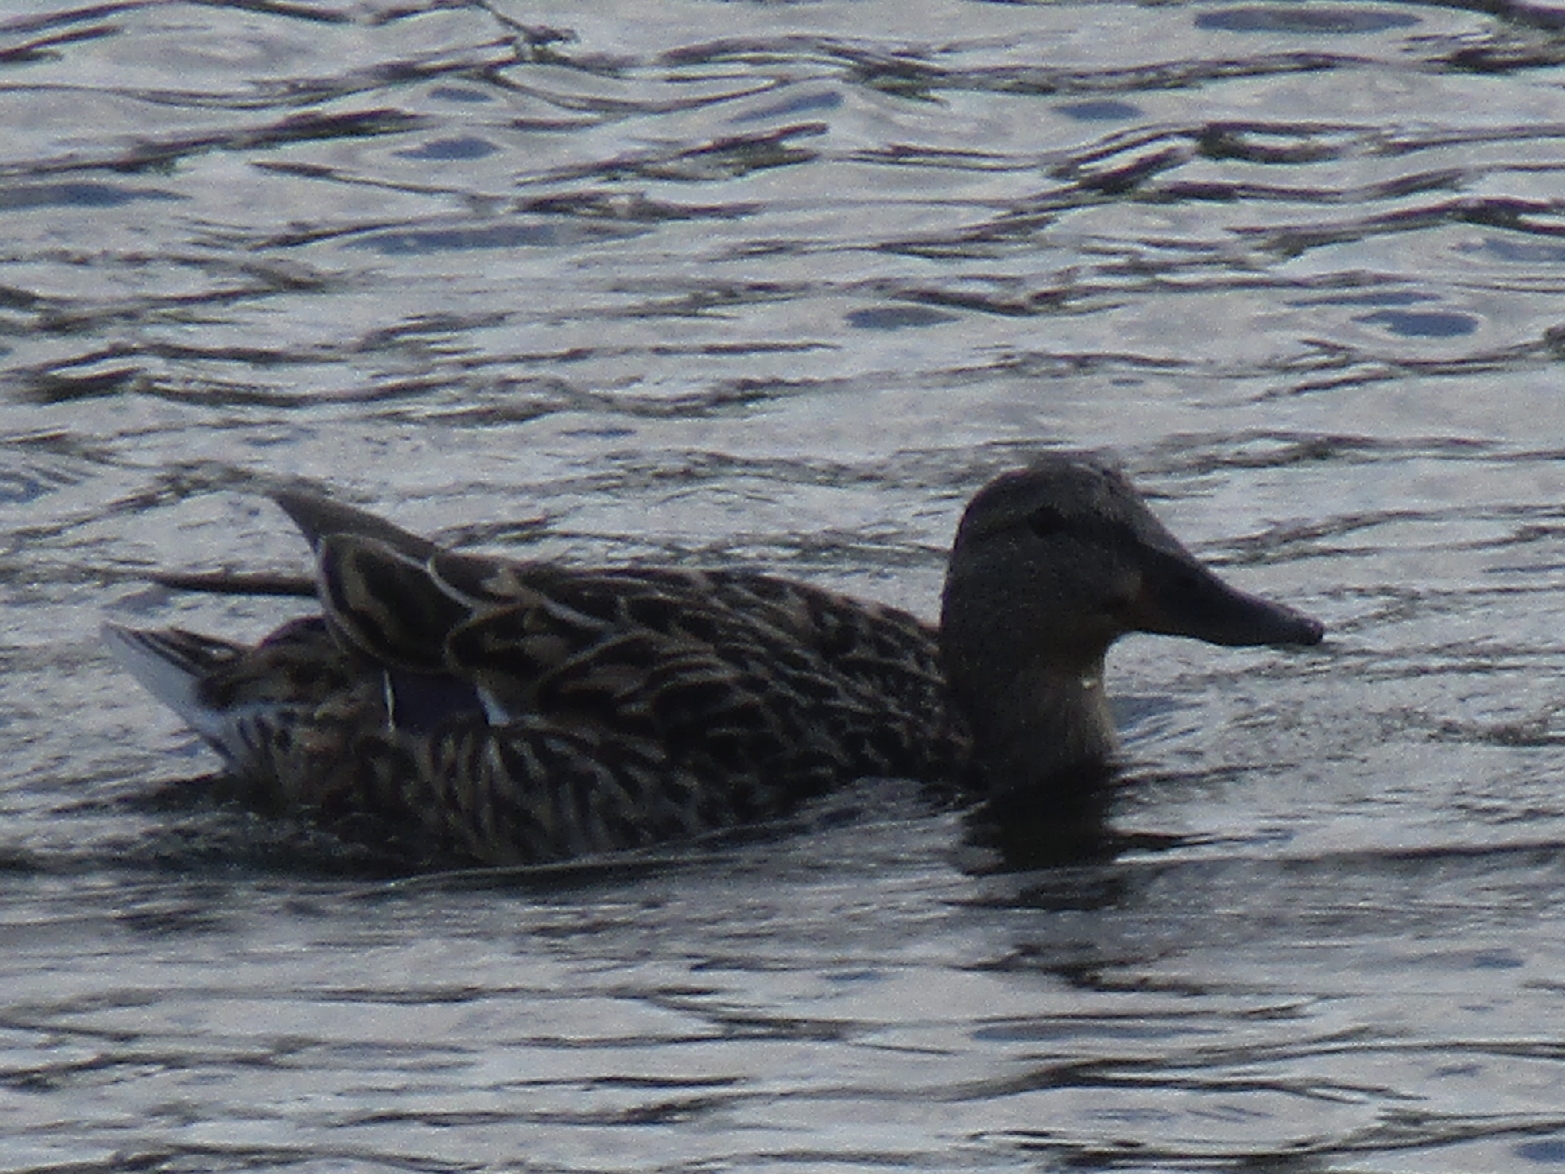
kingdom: Animalia
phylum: Chordata
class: Aves
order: Anseriformes
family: Anatidae
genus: Anas
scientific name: Anas platyrhynchos
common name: Mallard
